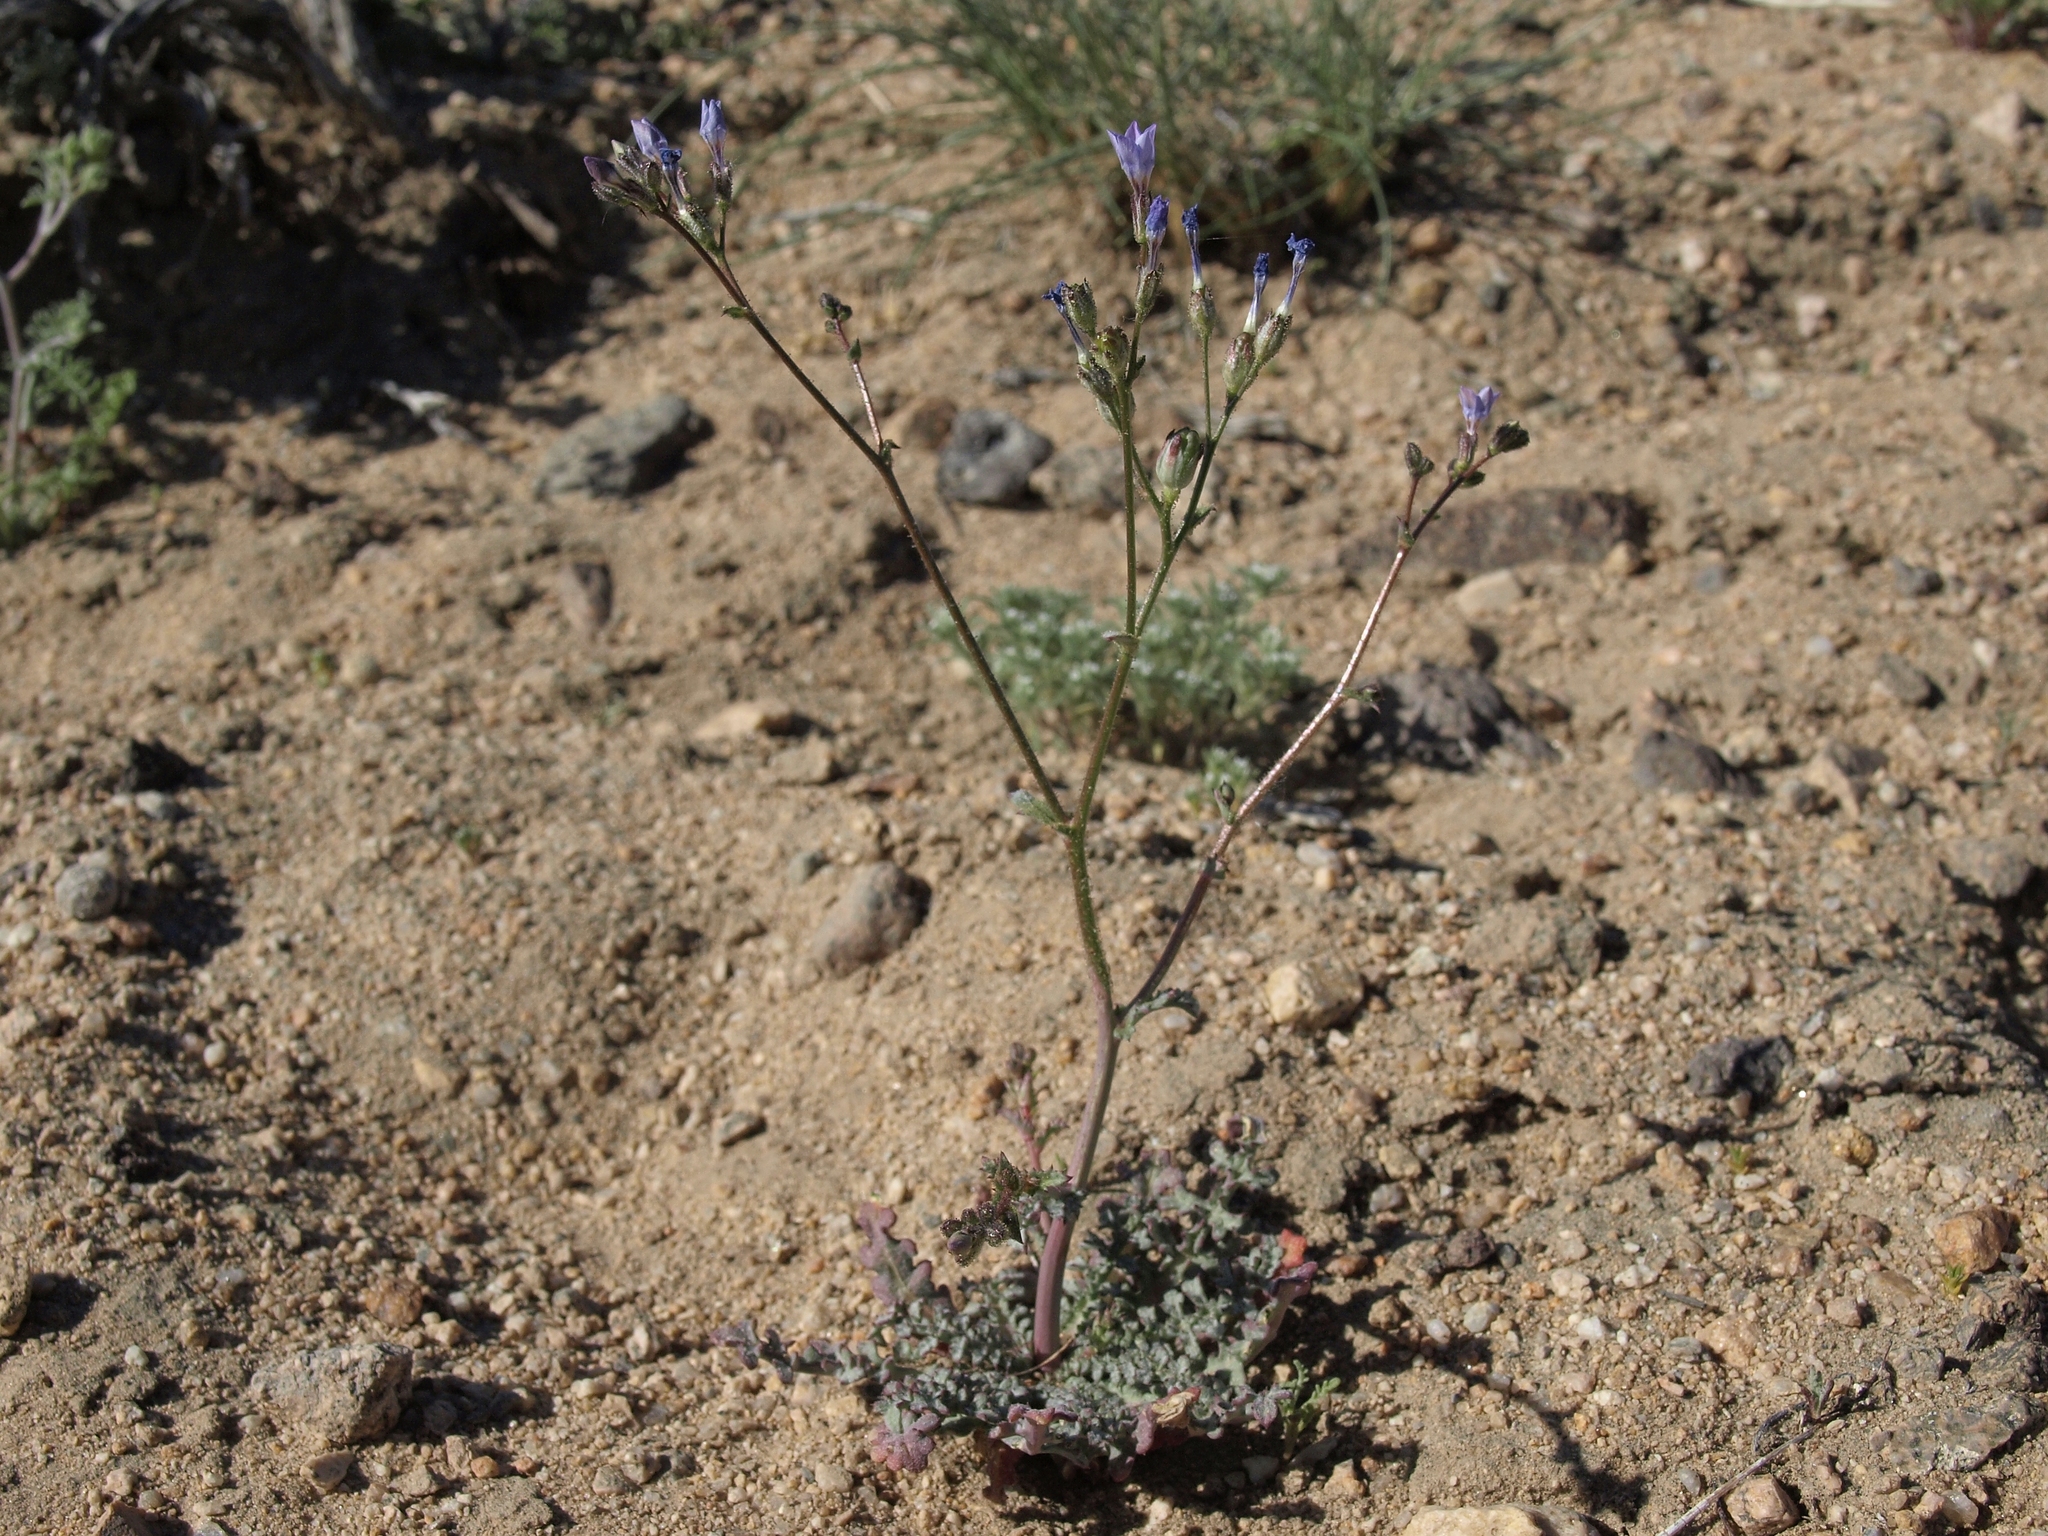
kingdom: Plantae
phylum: Tracheophyta
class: Magnoliopsida
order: Ericales
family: Polemoniaceae
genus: Gilia
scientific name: Gilia sinuata
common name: Rosy gilia
